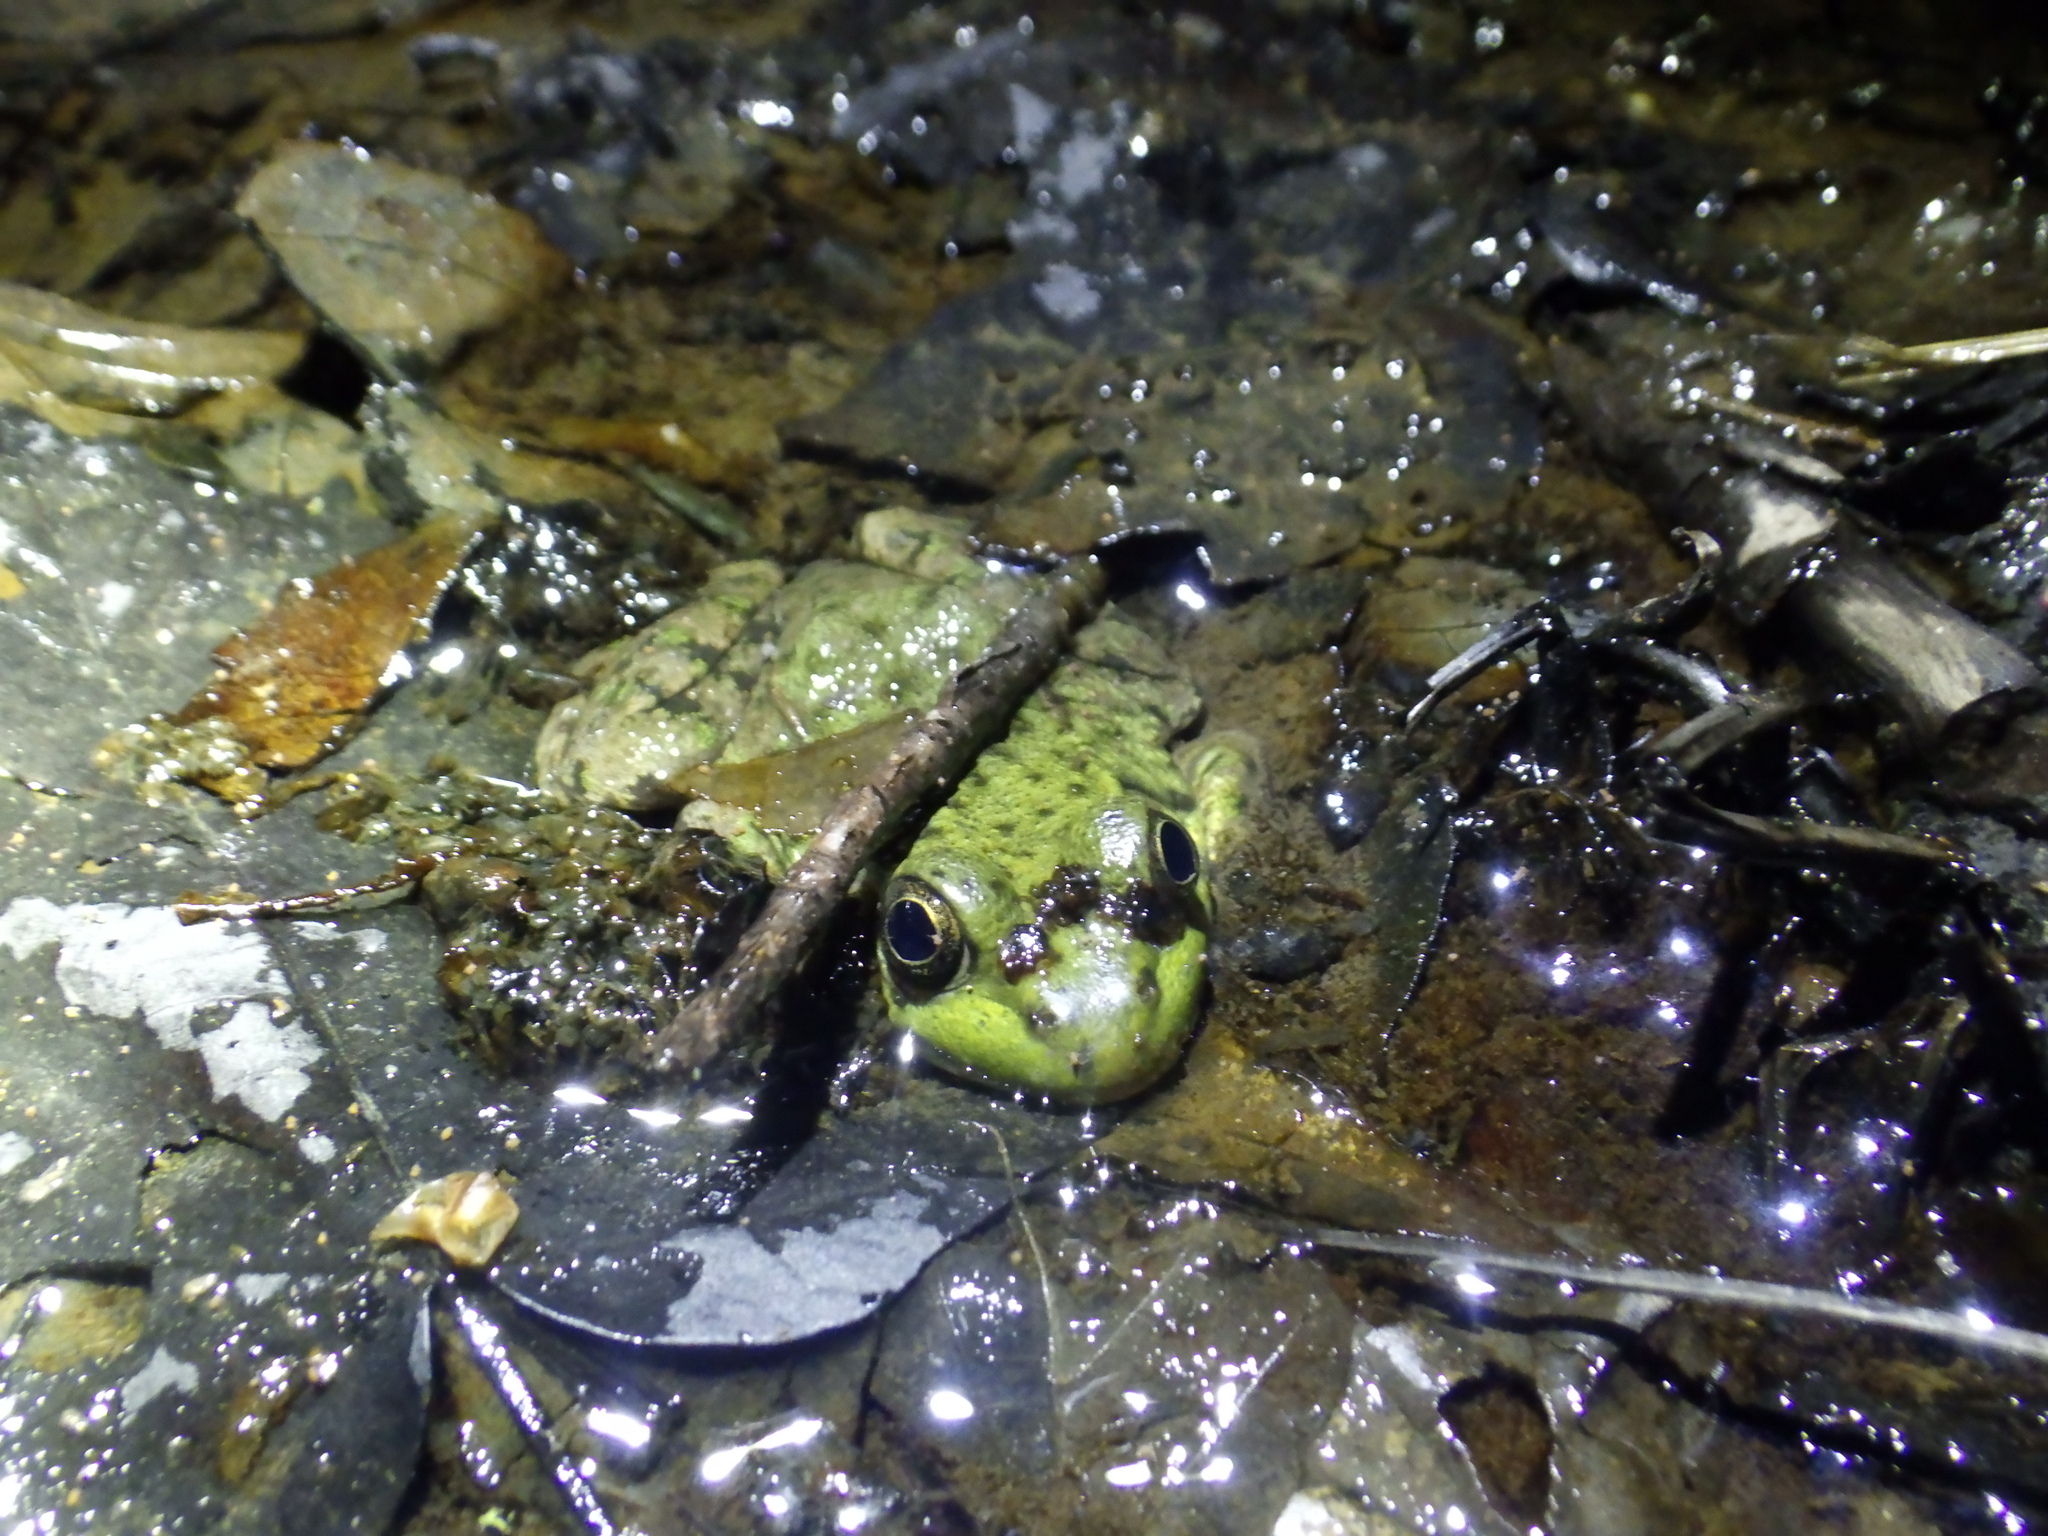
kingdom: Animalia
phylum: Chordata
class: Amphibia
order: Anura
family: Ranidae
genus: Lithobates
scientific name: Lithobates clamitans
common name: Green frog
